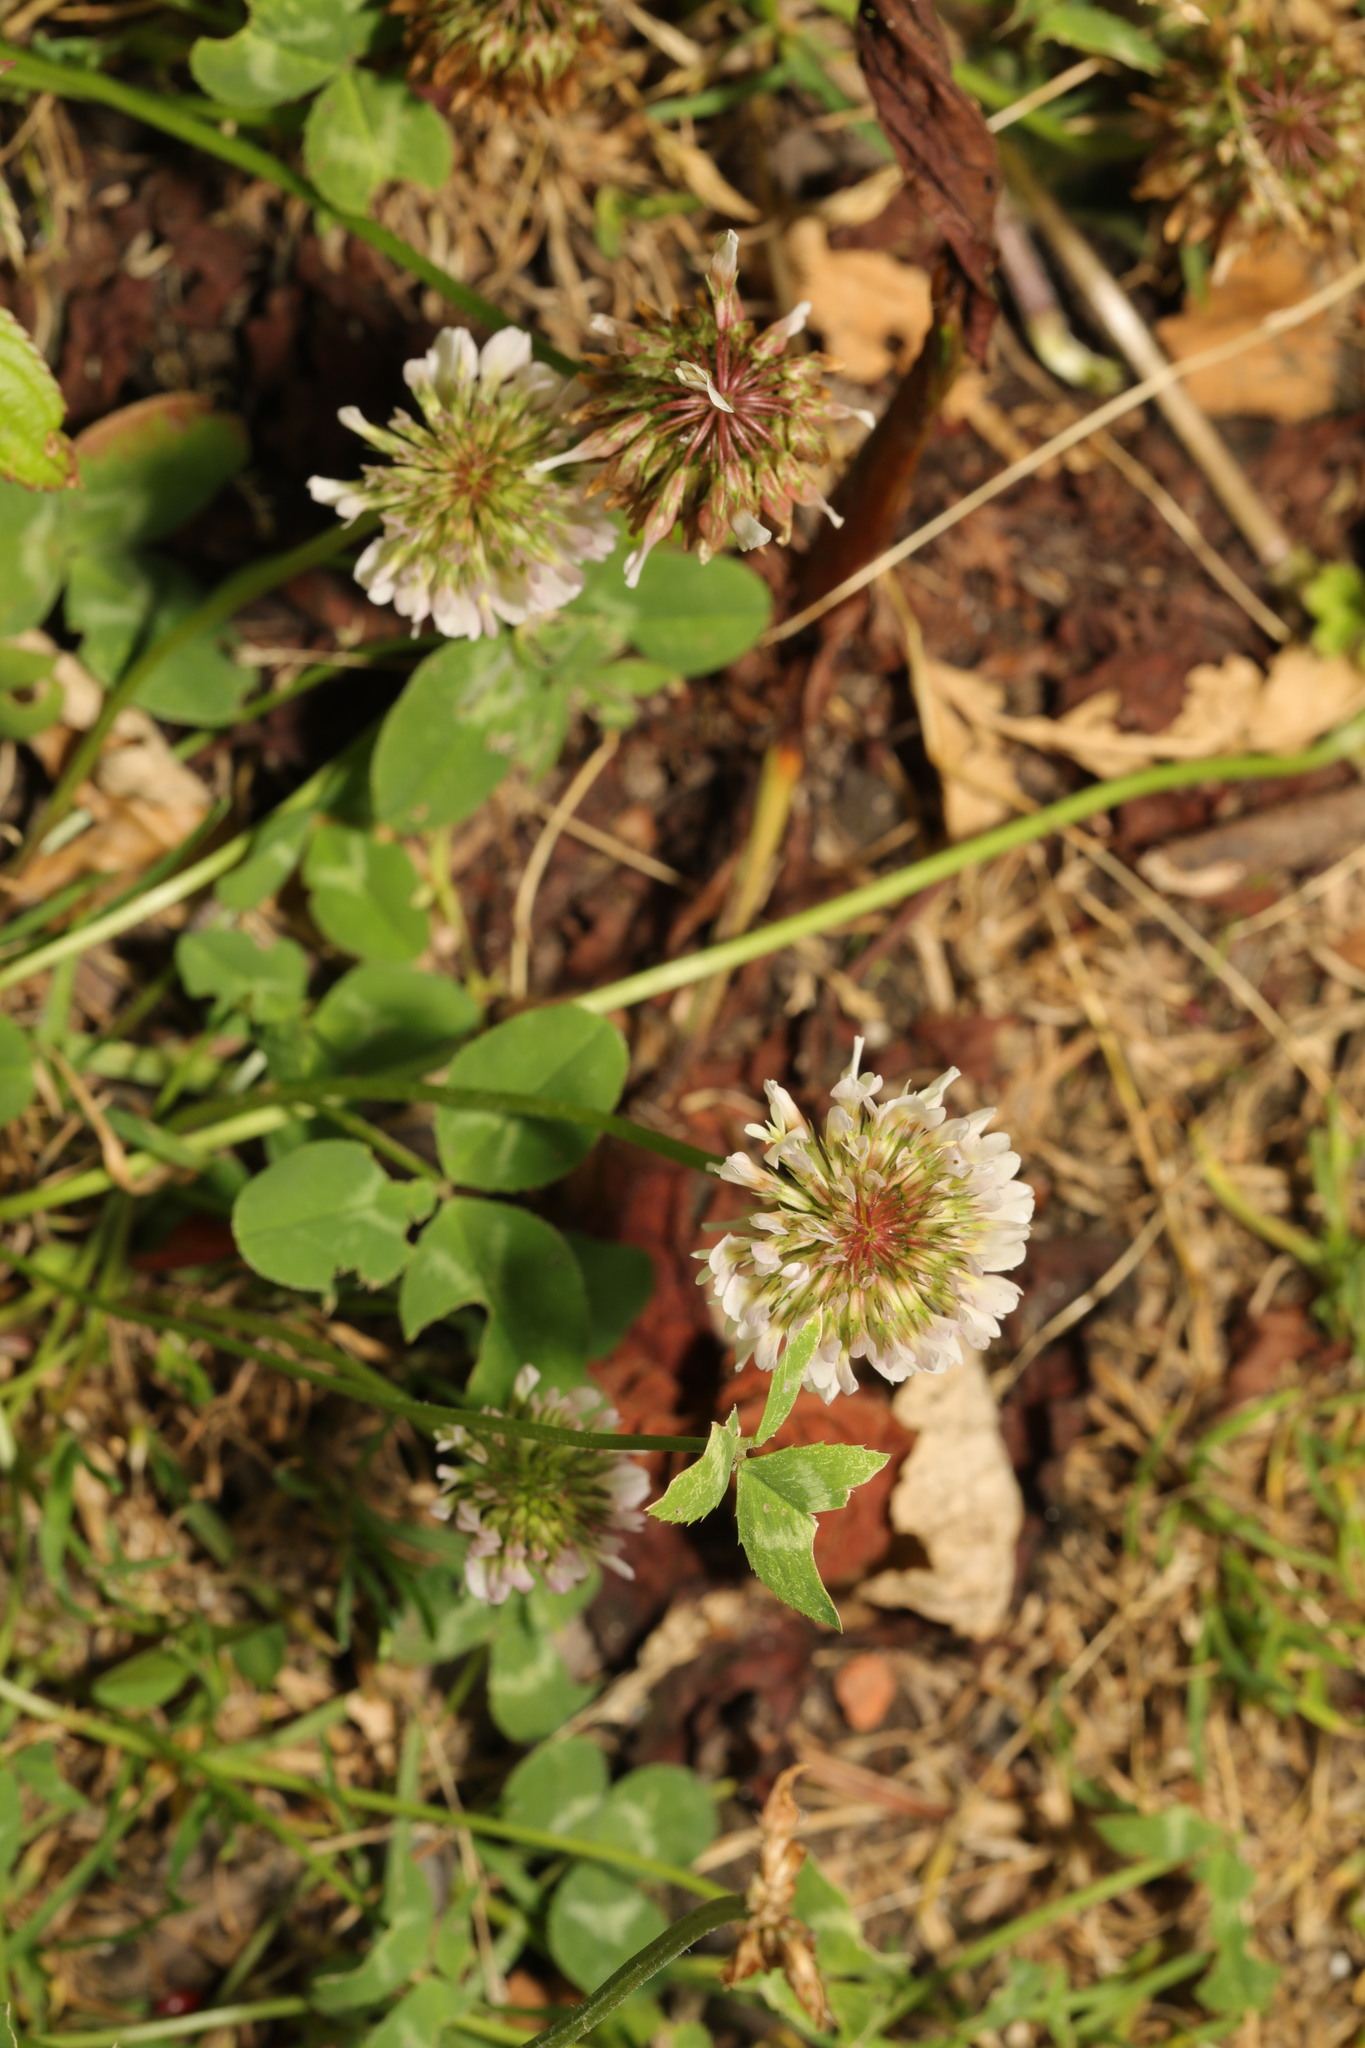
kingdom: Plantae
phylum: Tracheophyta
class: Magnoliopsida
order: Fabales
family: Fabaceae
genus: Trifolium
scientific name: Trifolium repens
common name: White clover
